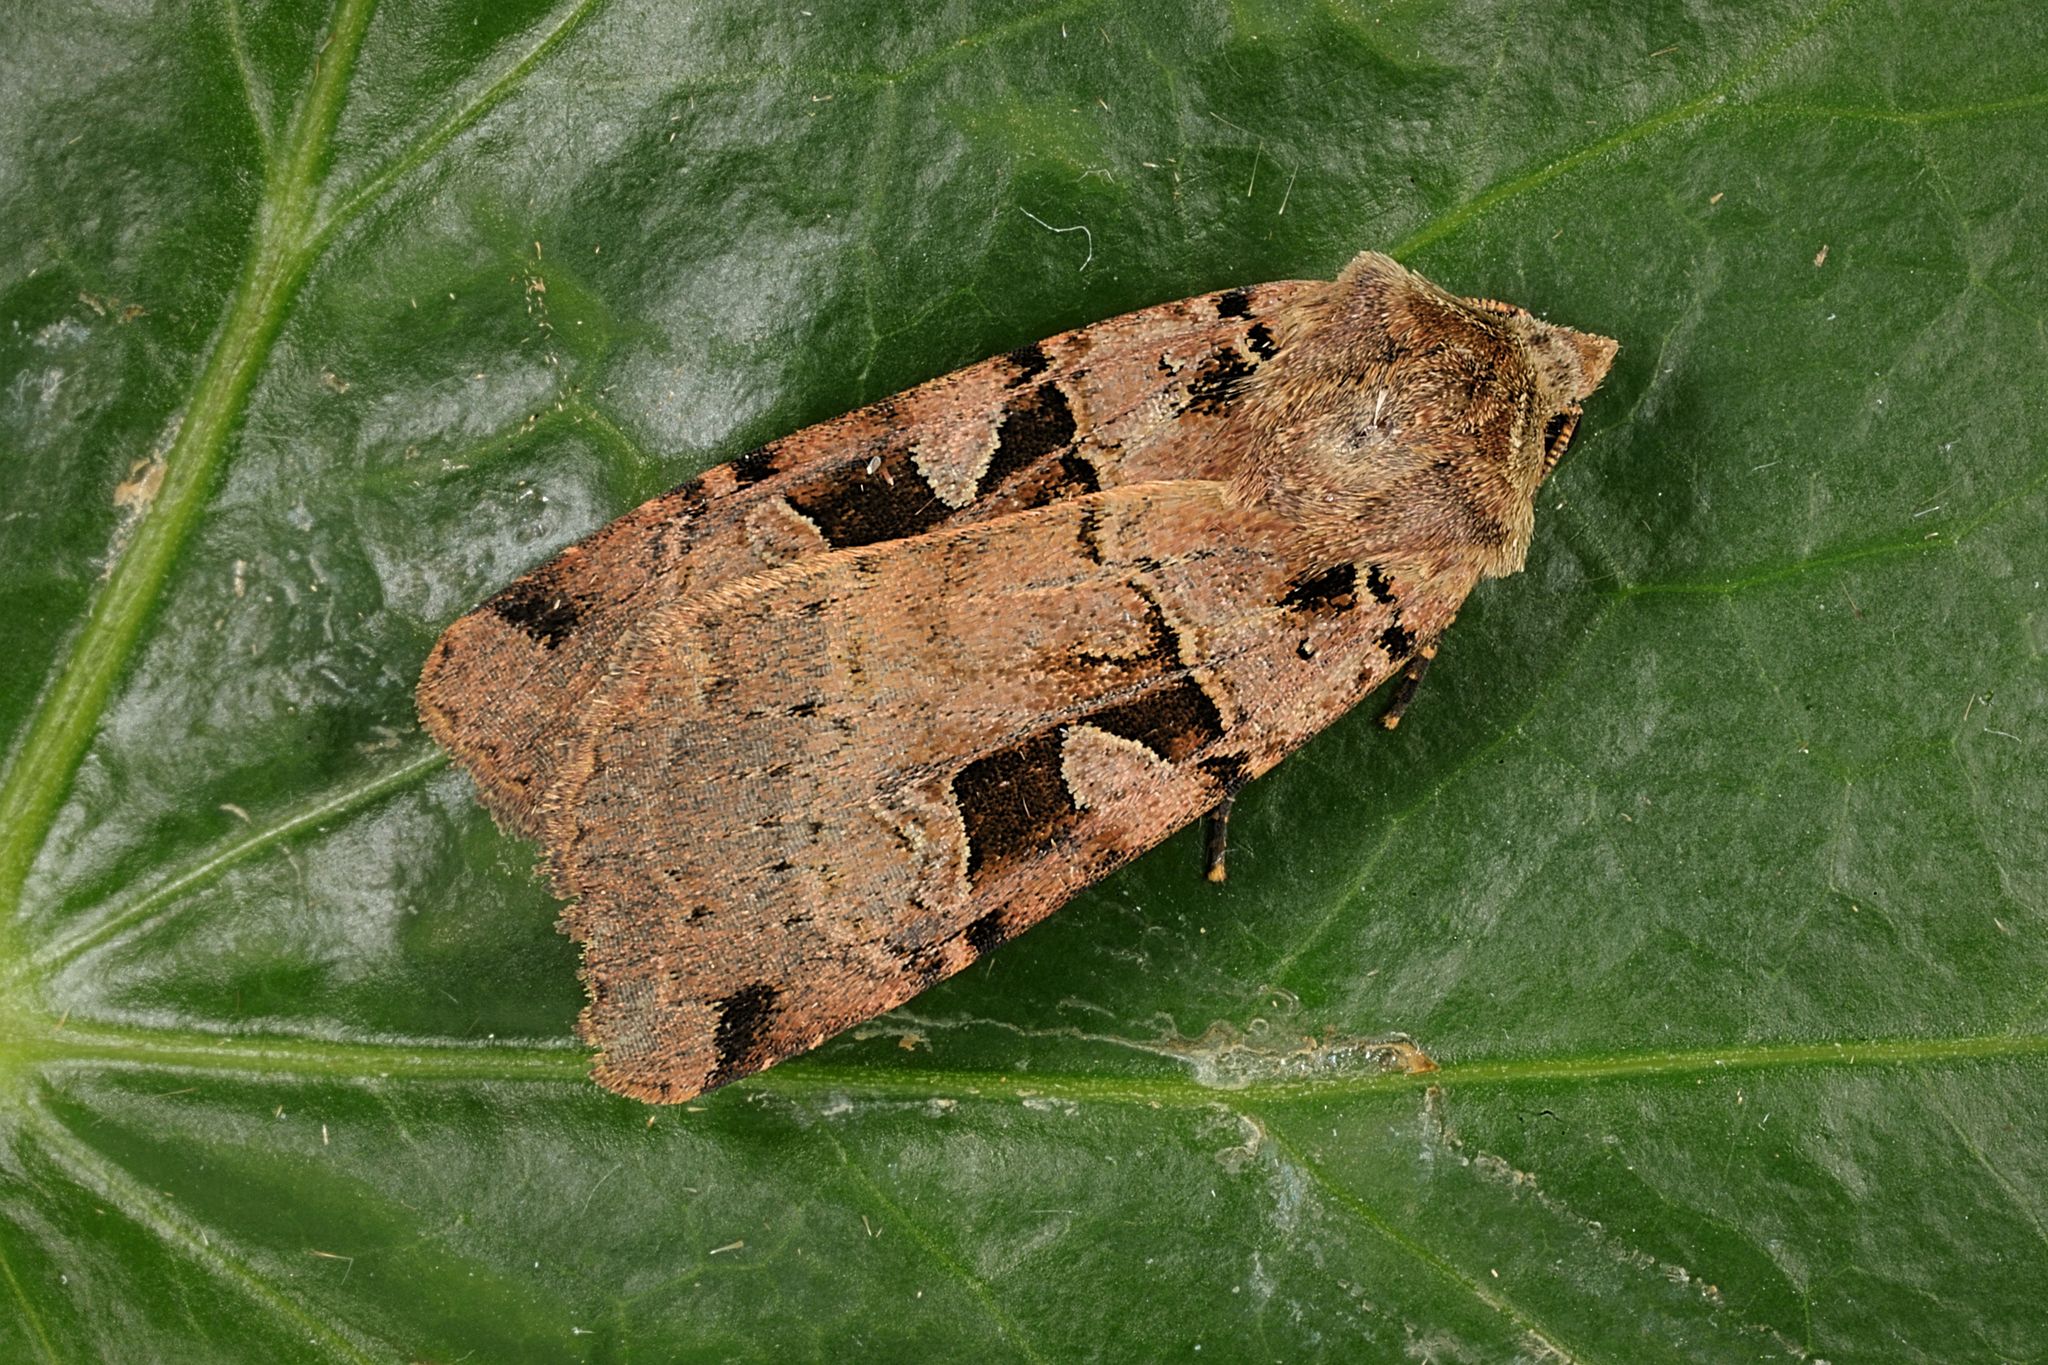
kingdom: Animalia
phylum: Arthropoda
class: Insecta
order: Lepidoptera
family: Noctuidae
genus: Xestia
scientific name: Xestia triangulum
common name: Double square-spot
